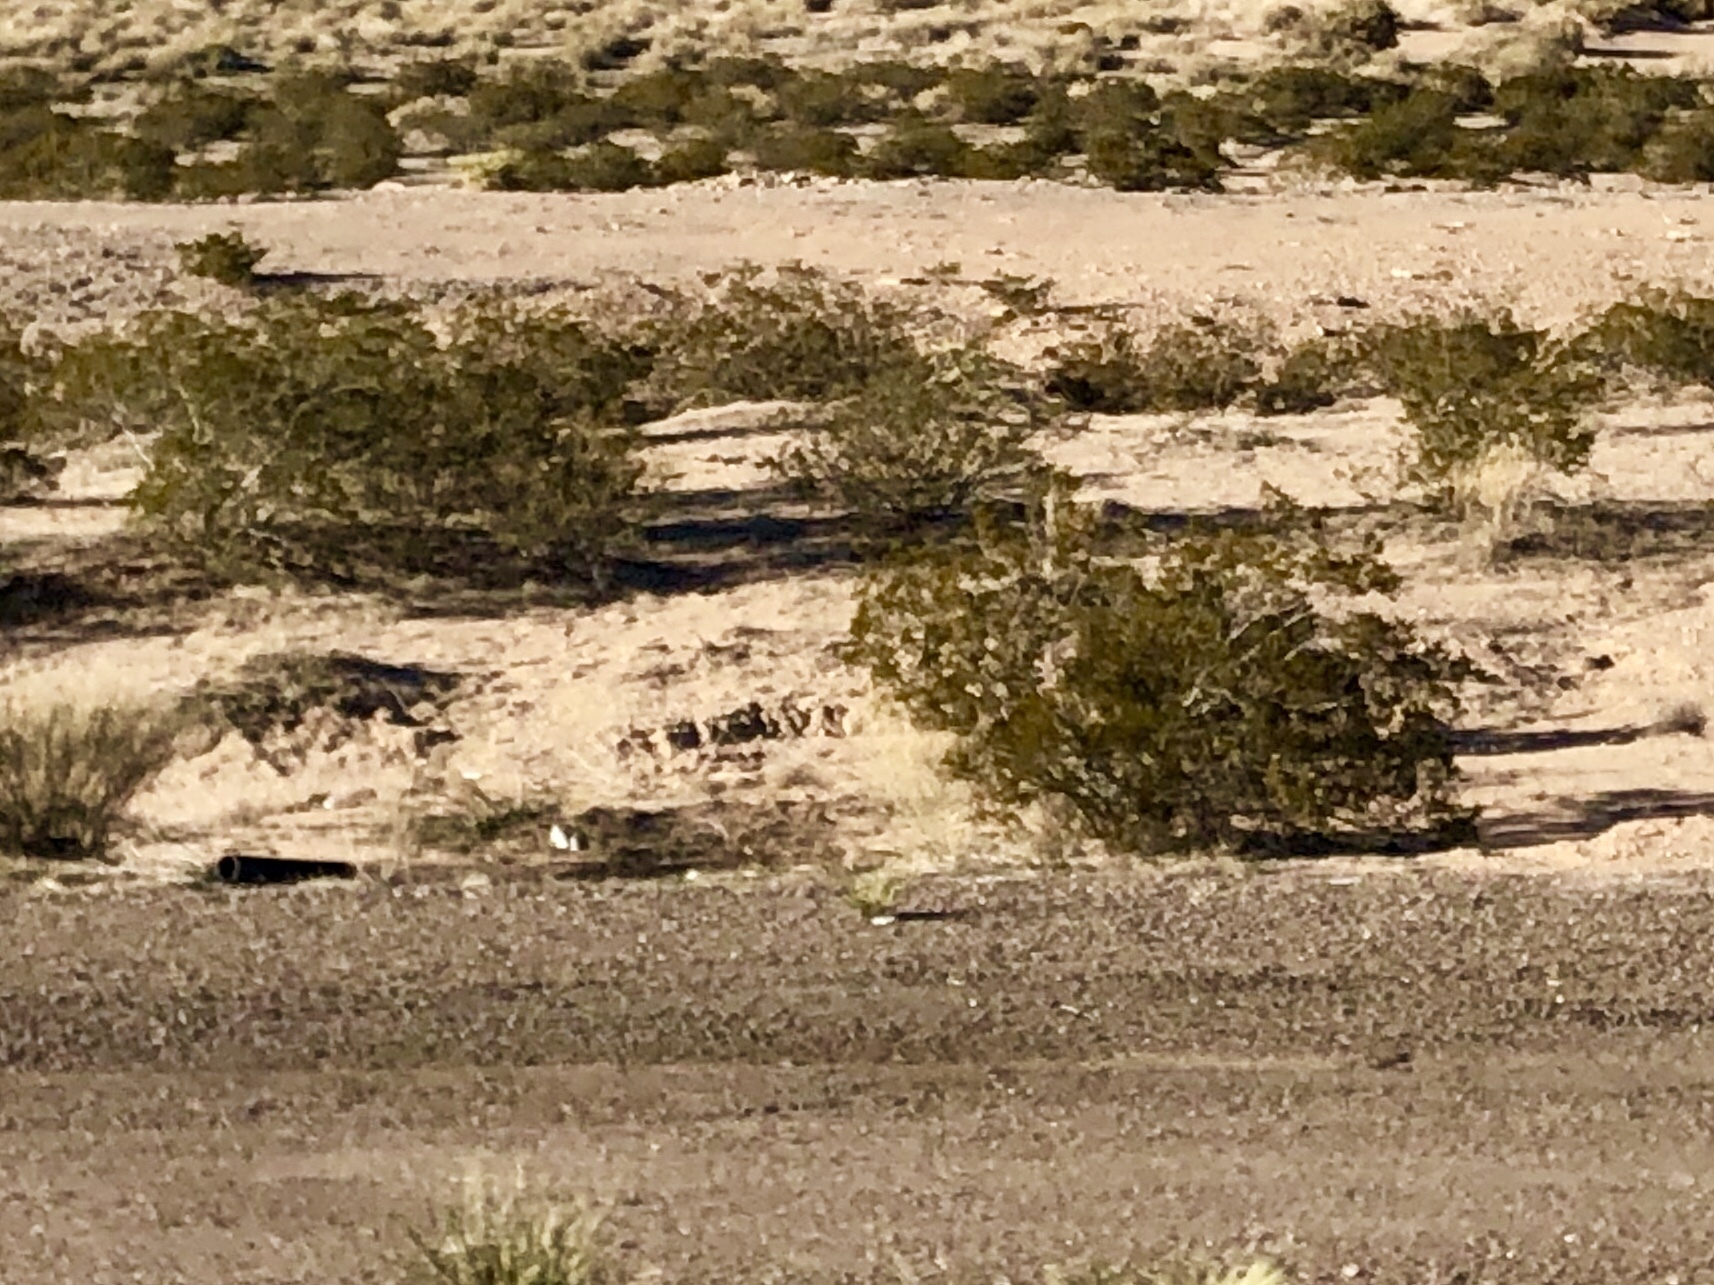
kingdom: Plantae
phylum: Tracheophyta
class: Magnoliopsida
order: Zygophyllales
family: Zygophyllaceae
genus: Larrea
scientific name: Larrea tridentata
